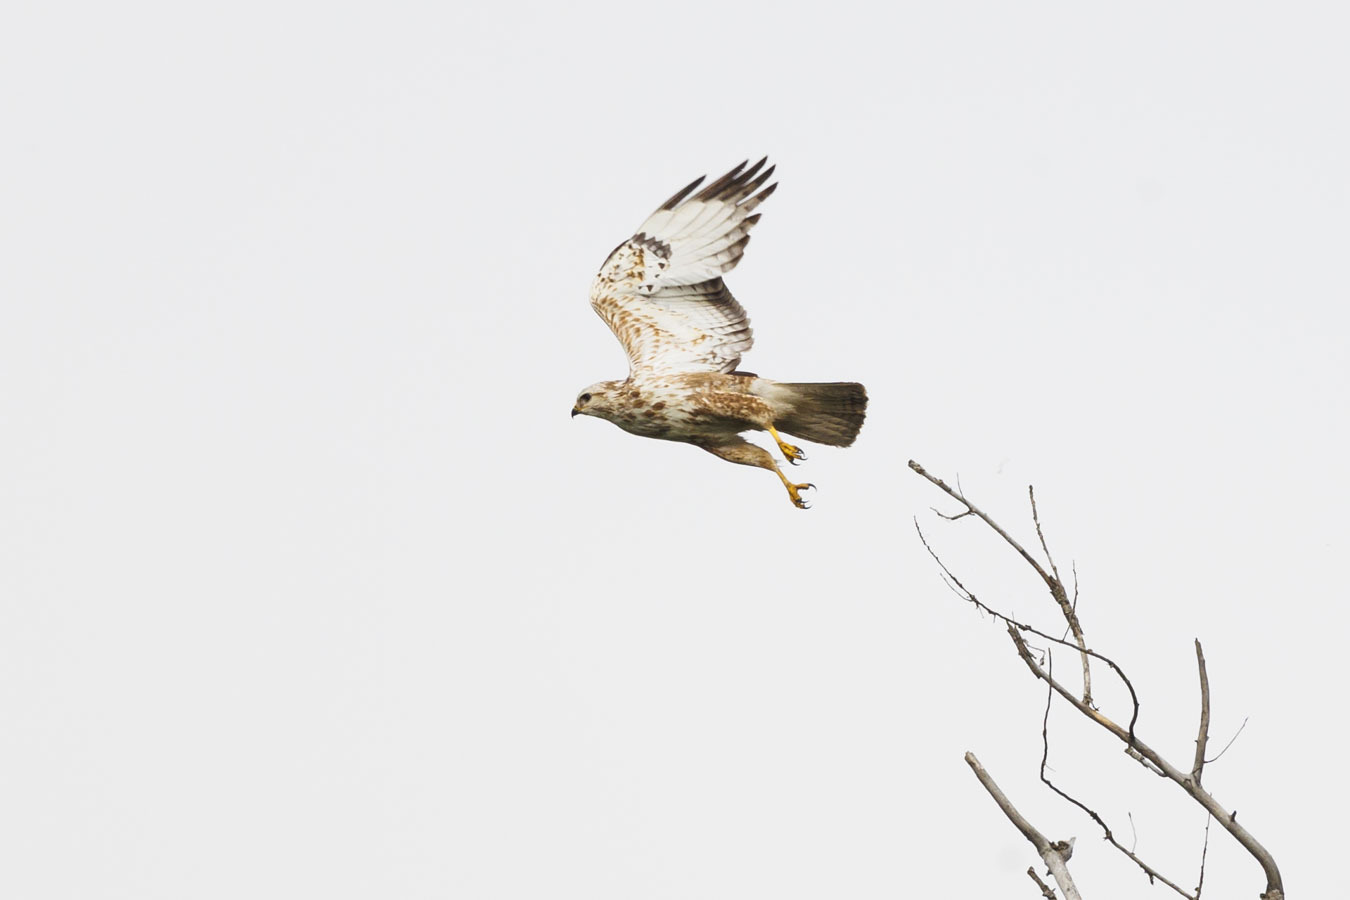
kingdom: Animalia
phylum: Chordata
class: Aves
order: Accipitriformes
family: Accipitridae
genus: Buteo
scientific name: Buteo buteo
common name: Common buzzard
